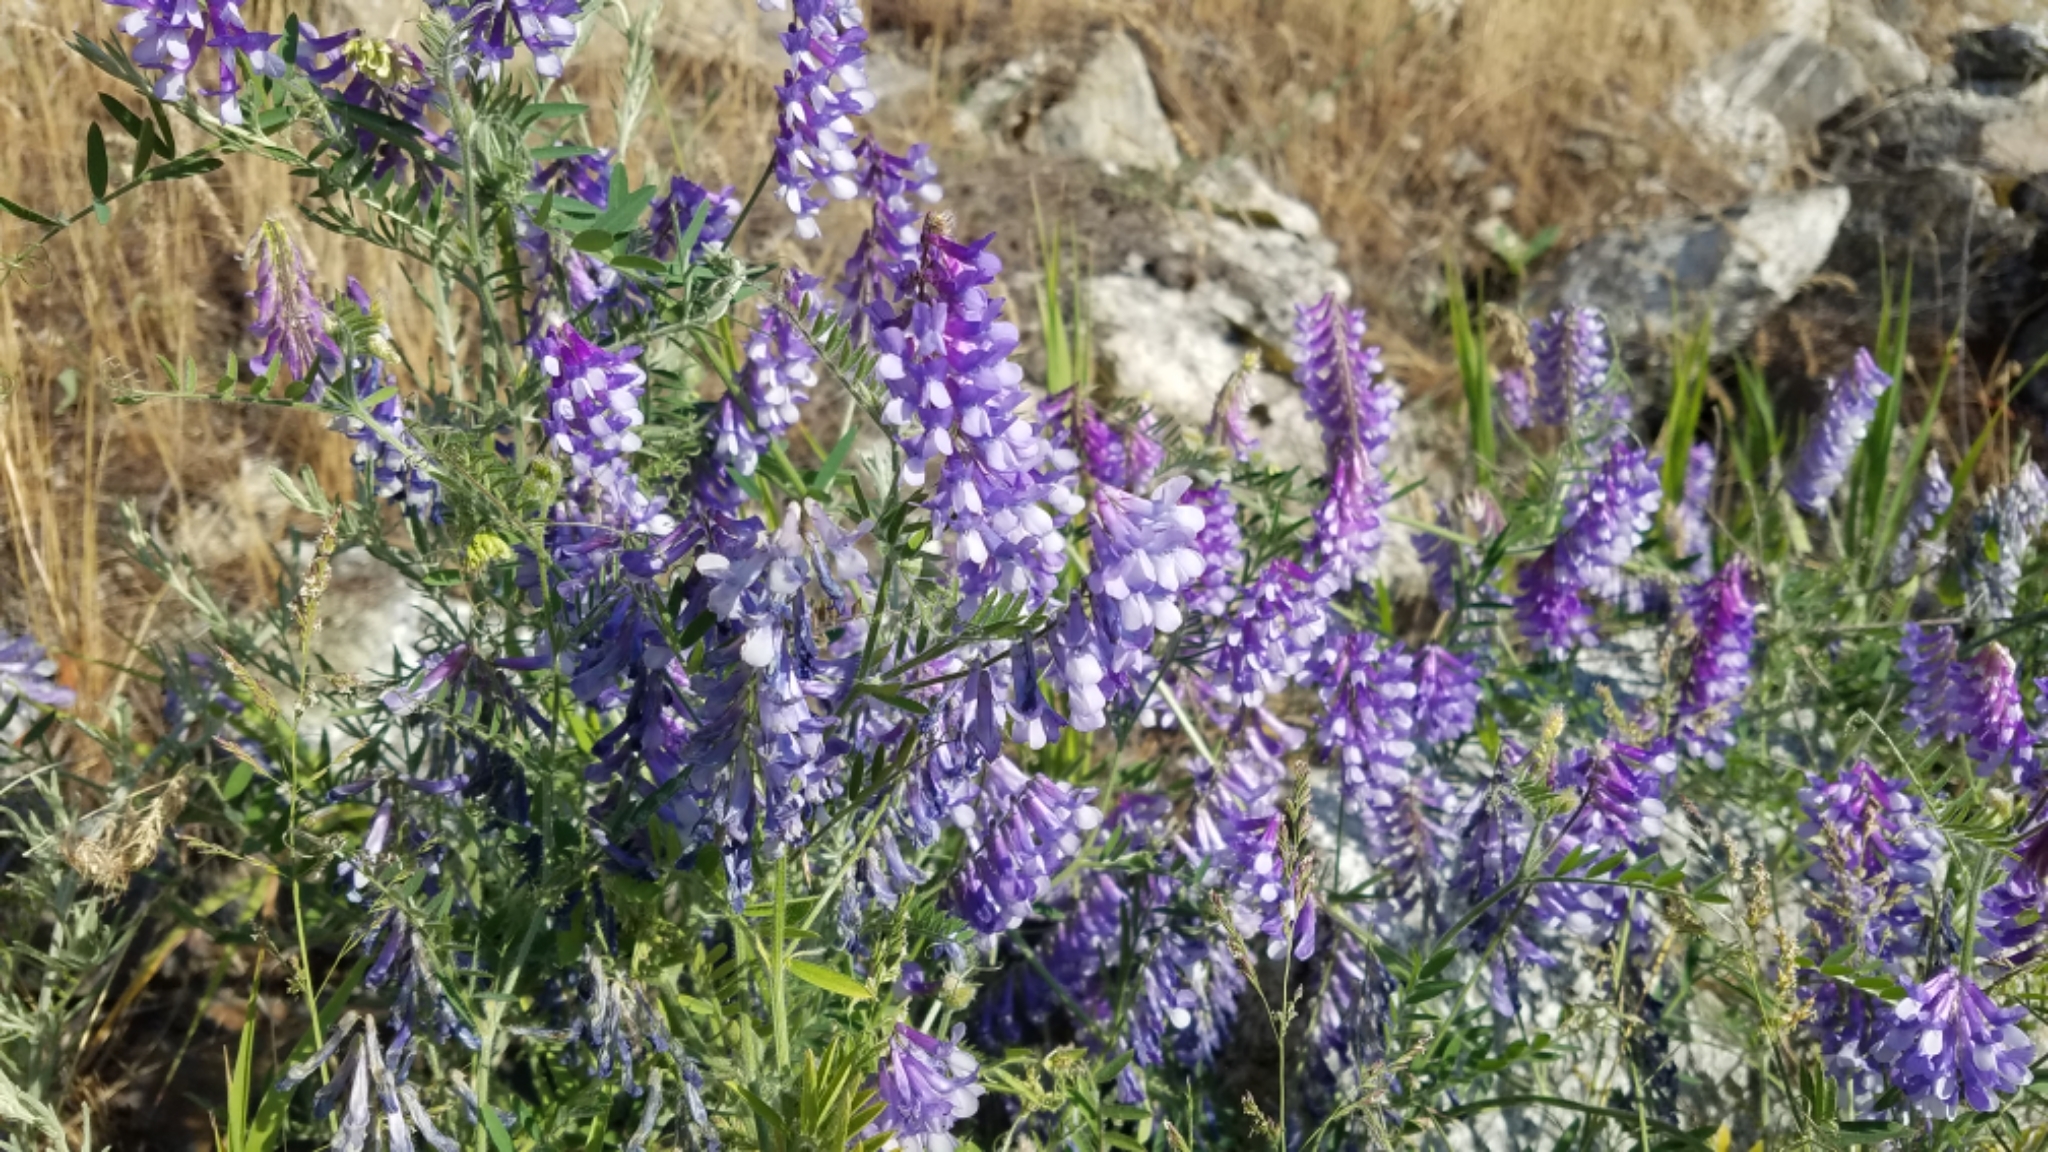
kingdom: Plantae
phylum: Tracheophyta
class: Magnoliopsida
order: Fabales
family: Fabaceae
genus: Vicia
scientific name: Vicia villosa
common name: Fodder vetch
